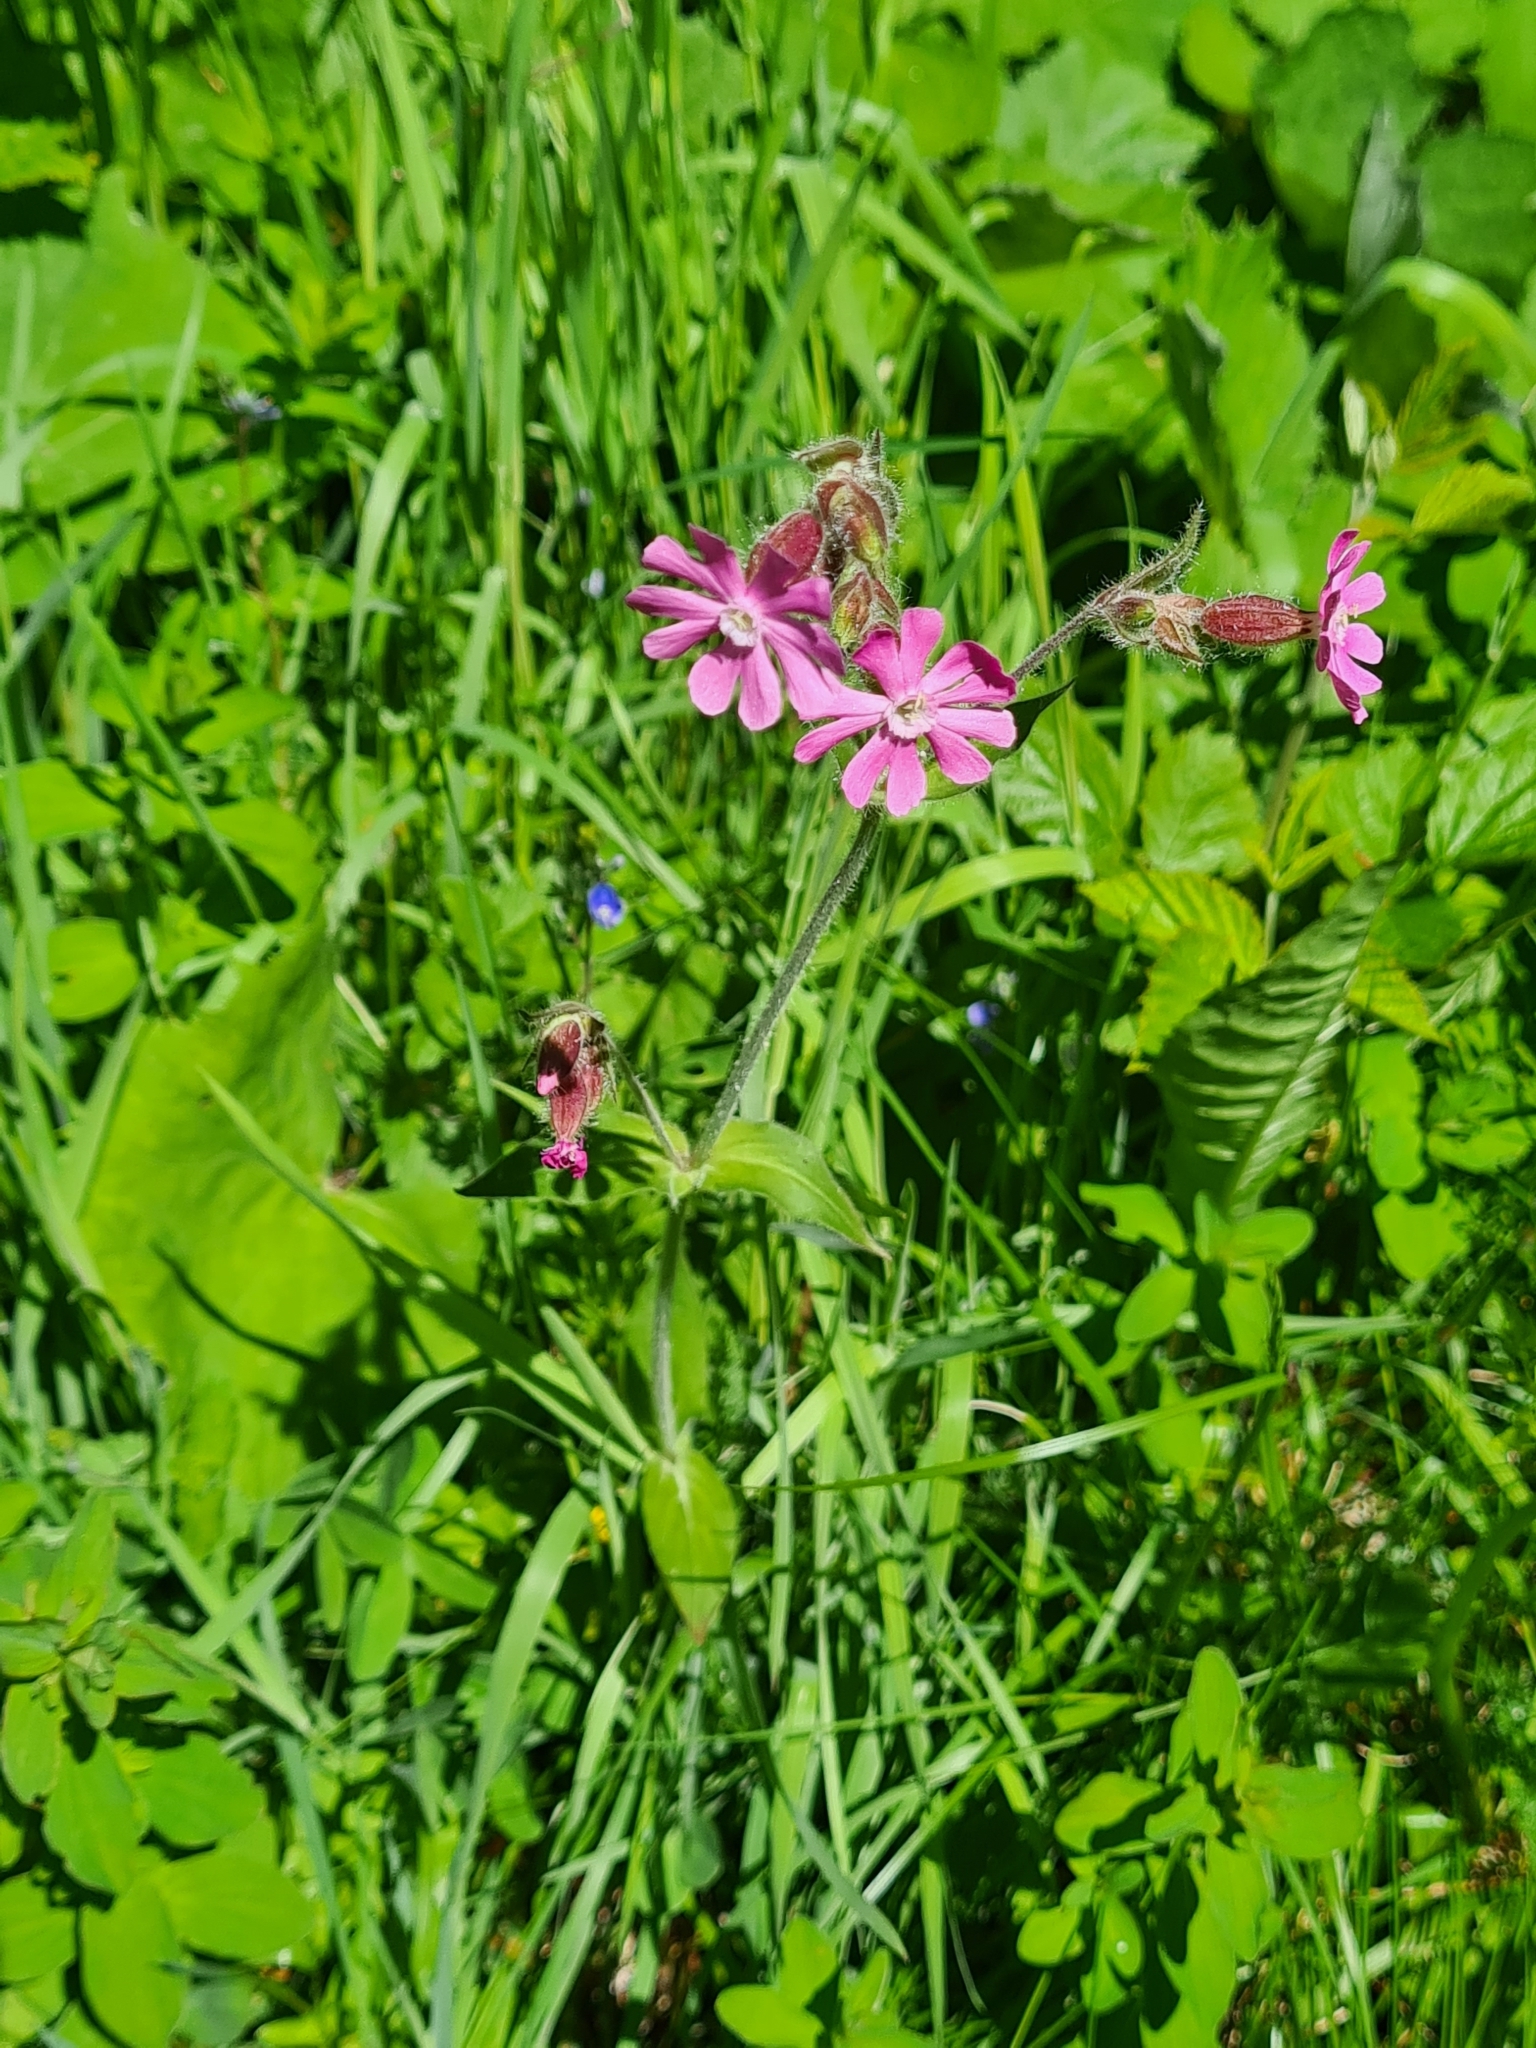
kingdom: Plantae
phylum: Tracheophyta
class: Magnoliopsida
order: Caryophyllales
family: Caryophyllaceae
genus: Silene
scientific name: Silene dioica
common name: Red campion
